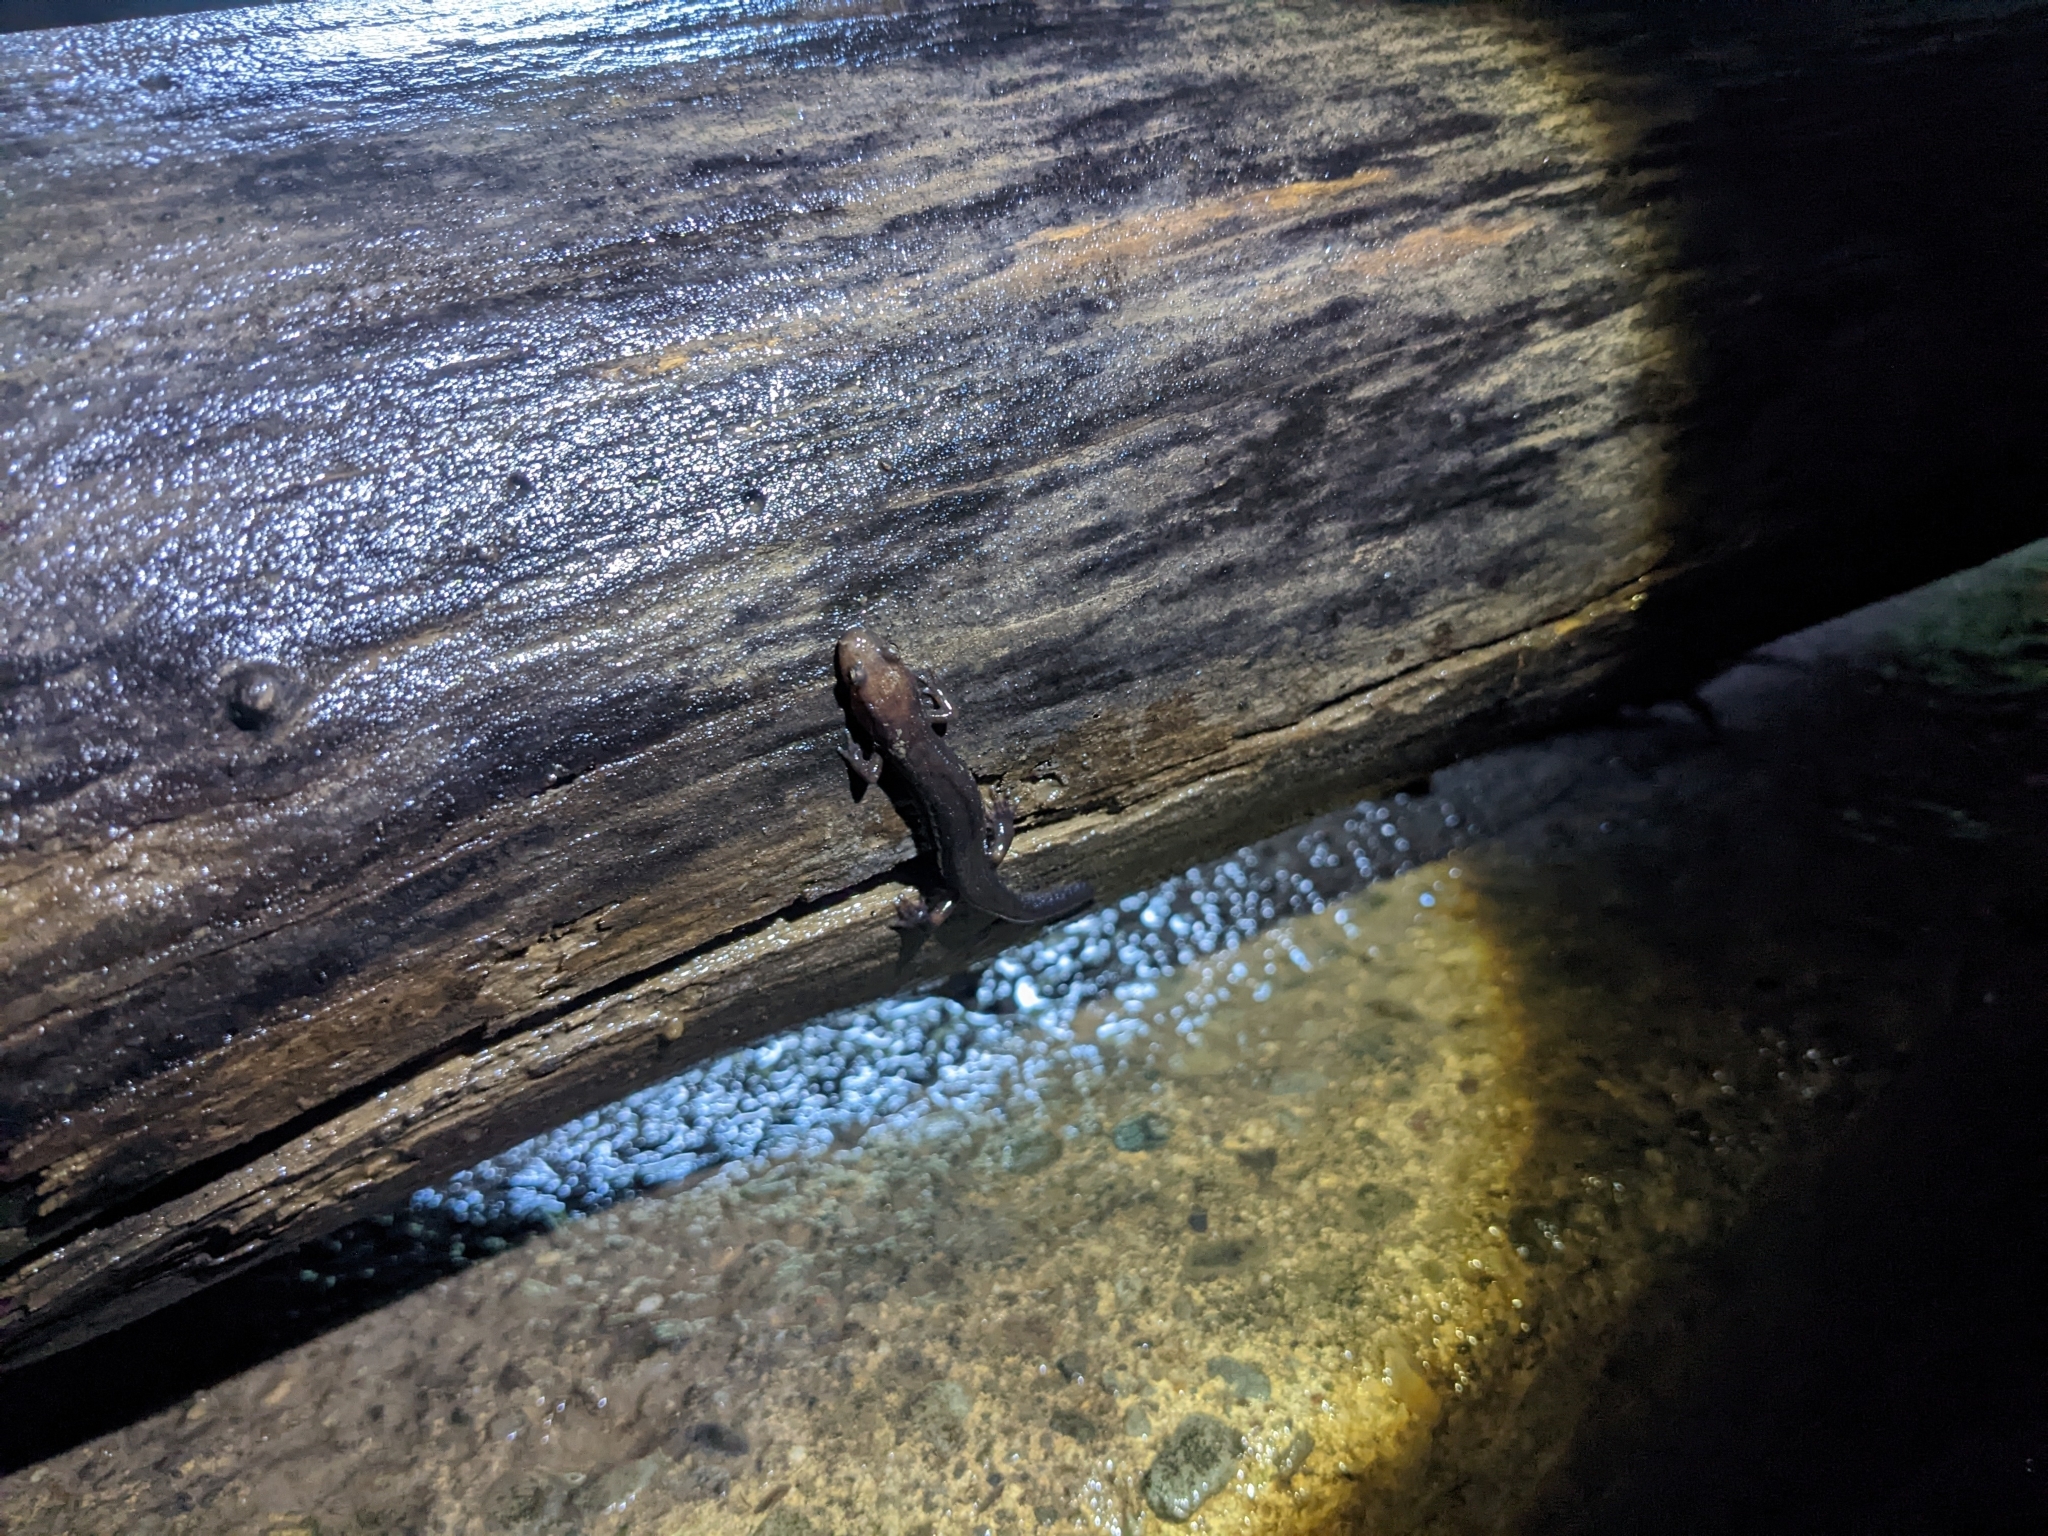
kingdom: Animalia
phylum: Chordata
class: Amphibia
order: Caudata
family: Plethodontidae
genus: Desmognathus
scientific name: Desmognathus ochrophaeus
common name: Allegheny mountain dusky salamander
